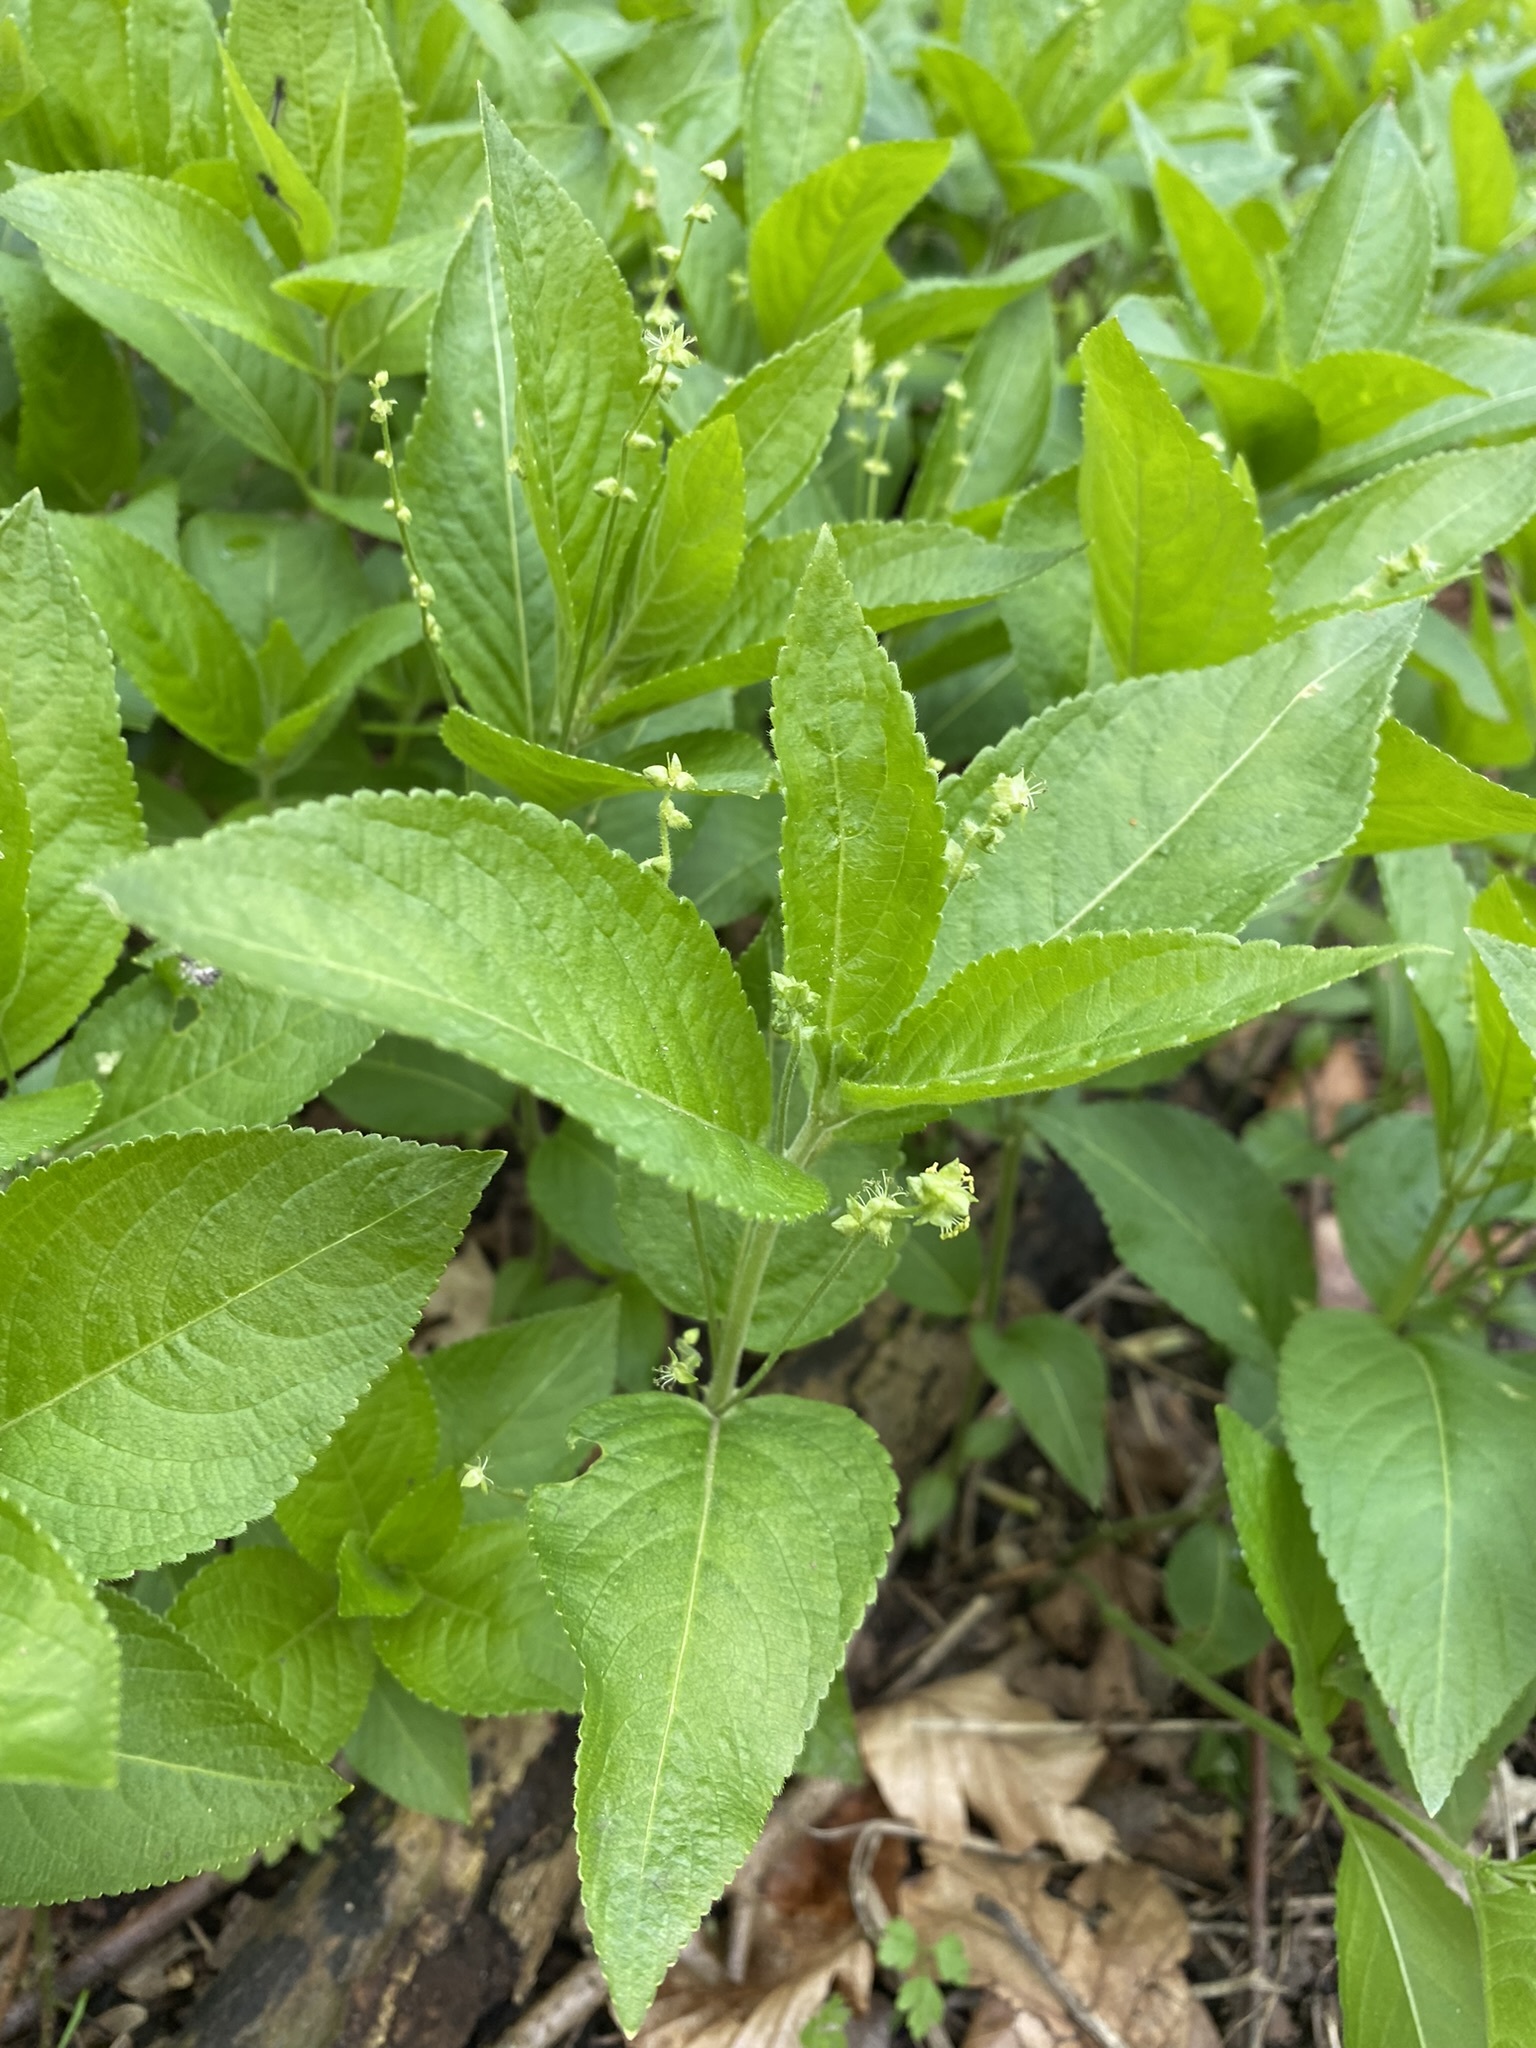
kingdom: Plantae
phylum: Tracheophyta
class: Magnoliopsida
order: Malpighiales
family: Euphorbiaceae
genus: Mercurialis
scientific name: Mercurialis perennis
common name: Dog mercury
